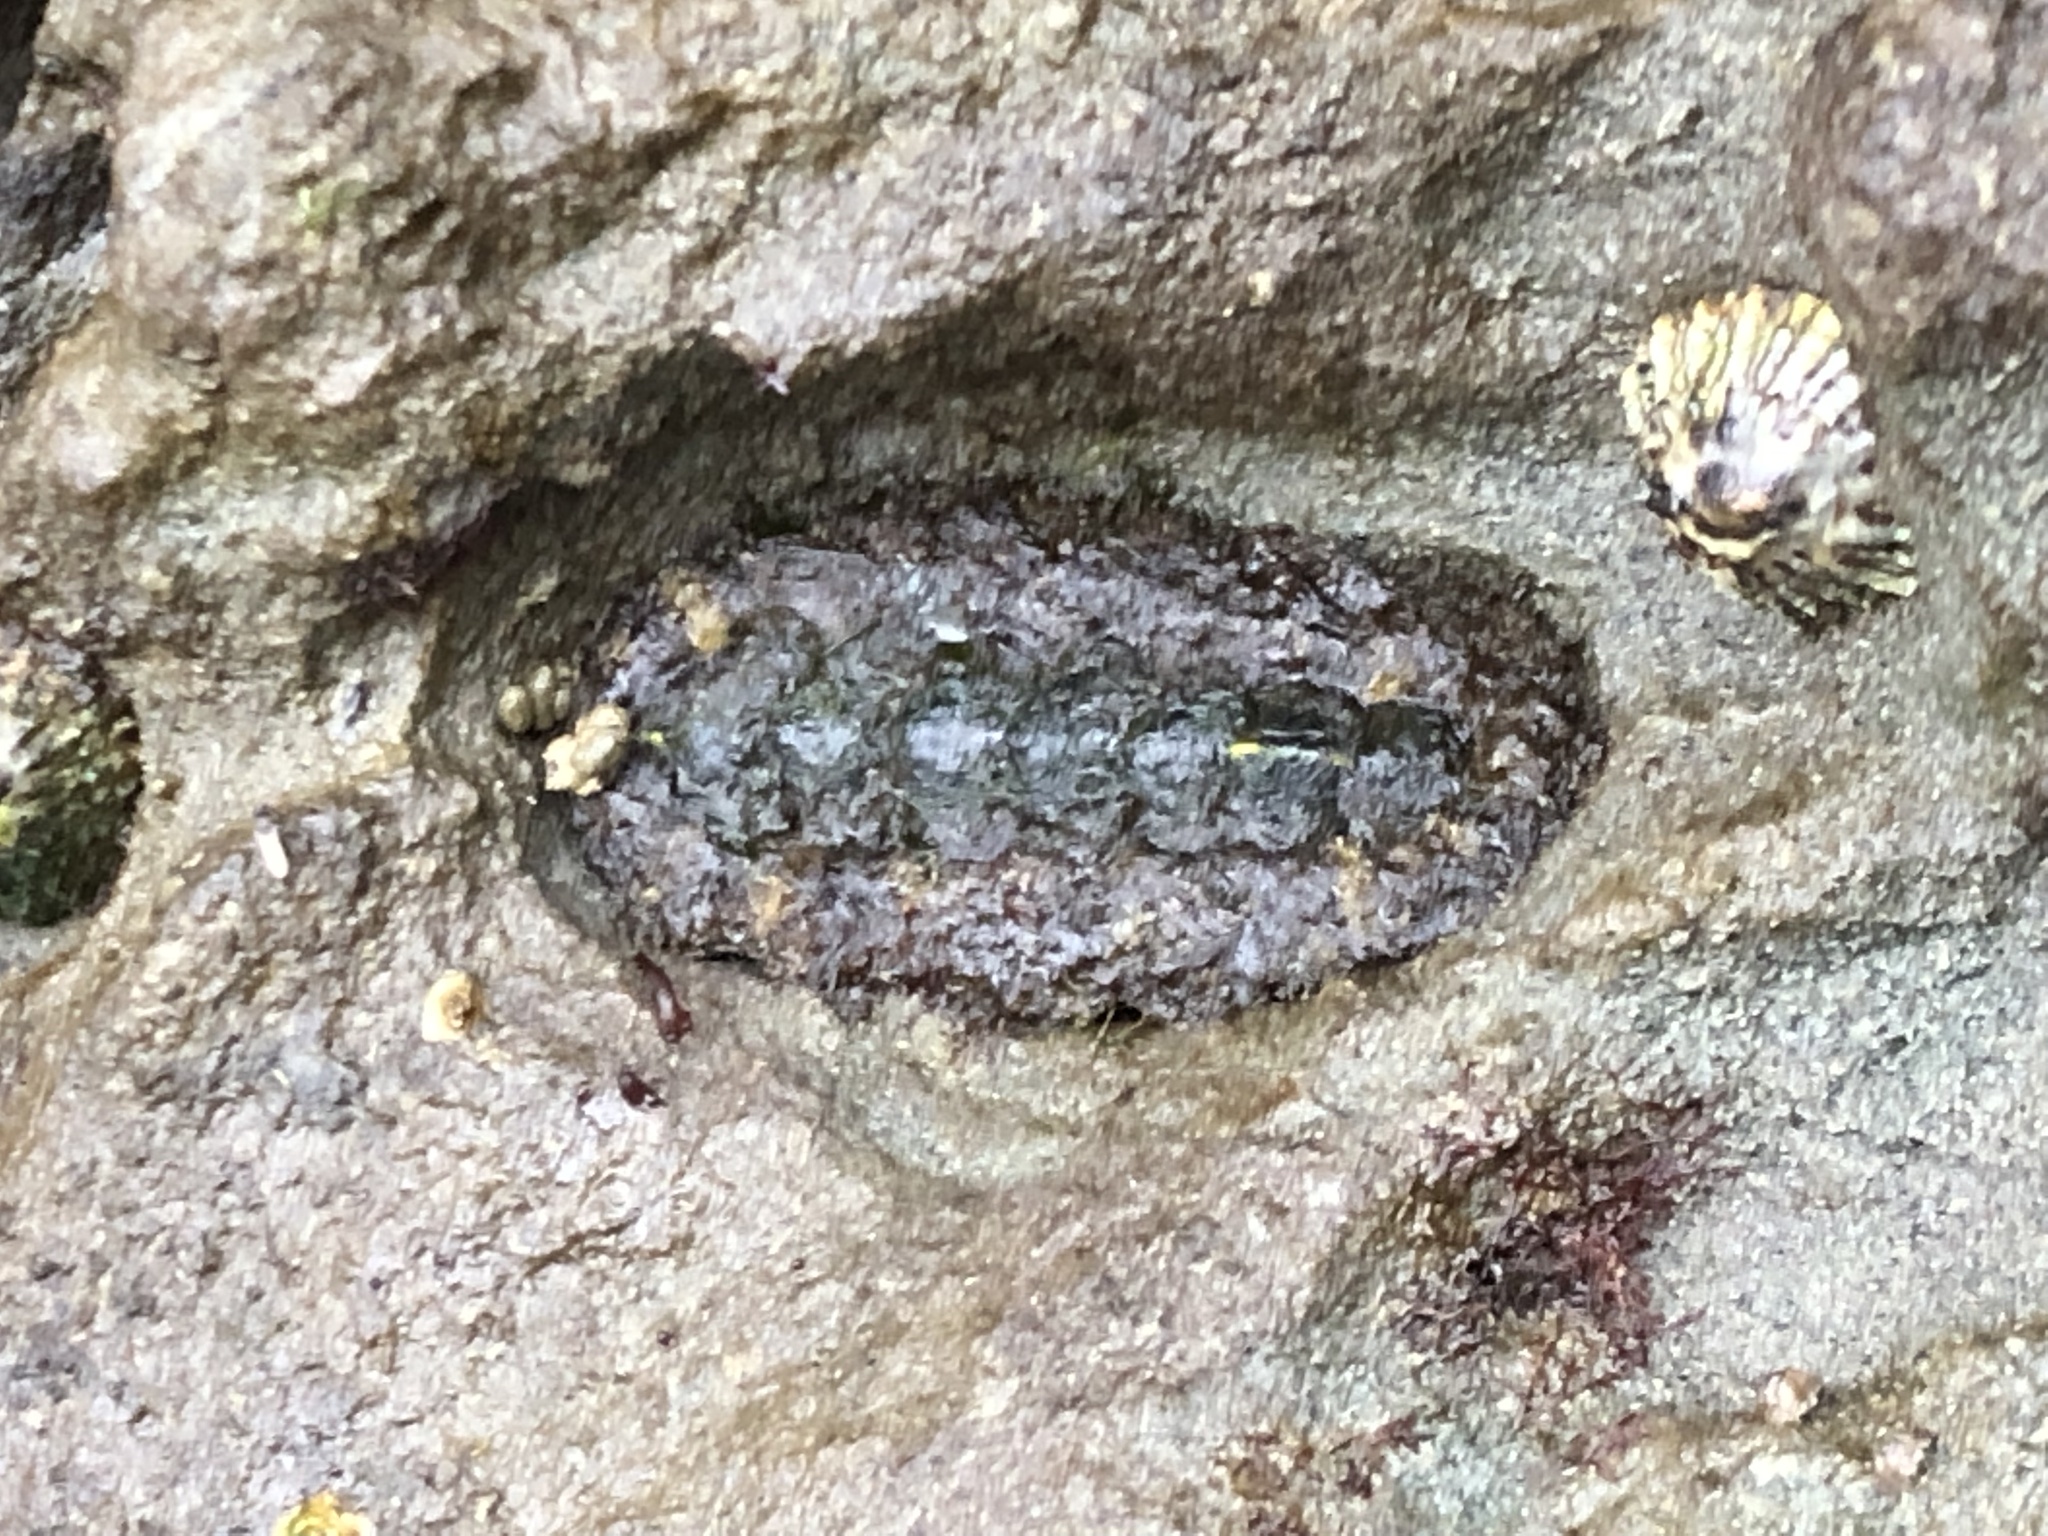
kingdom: Animalia
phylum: Mollusca
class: Polyplacophora
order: Chitonida
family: Tonicellidae
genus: Nuttallina
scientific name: Nuttallina californica
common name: California nuttall chiton
